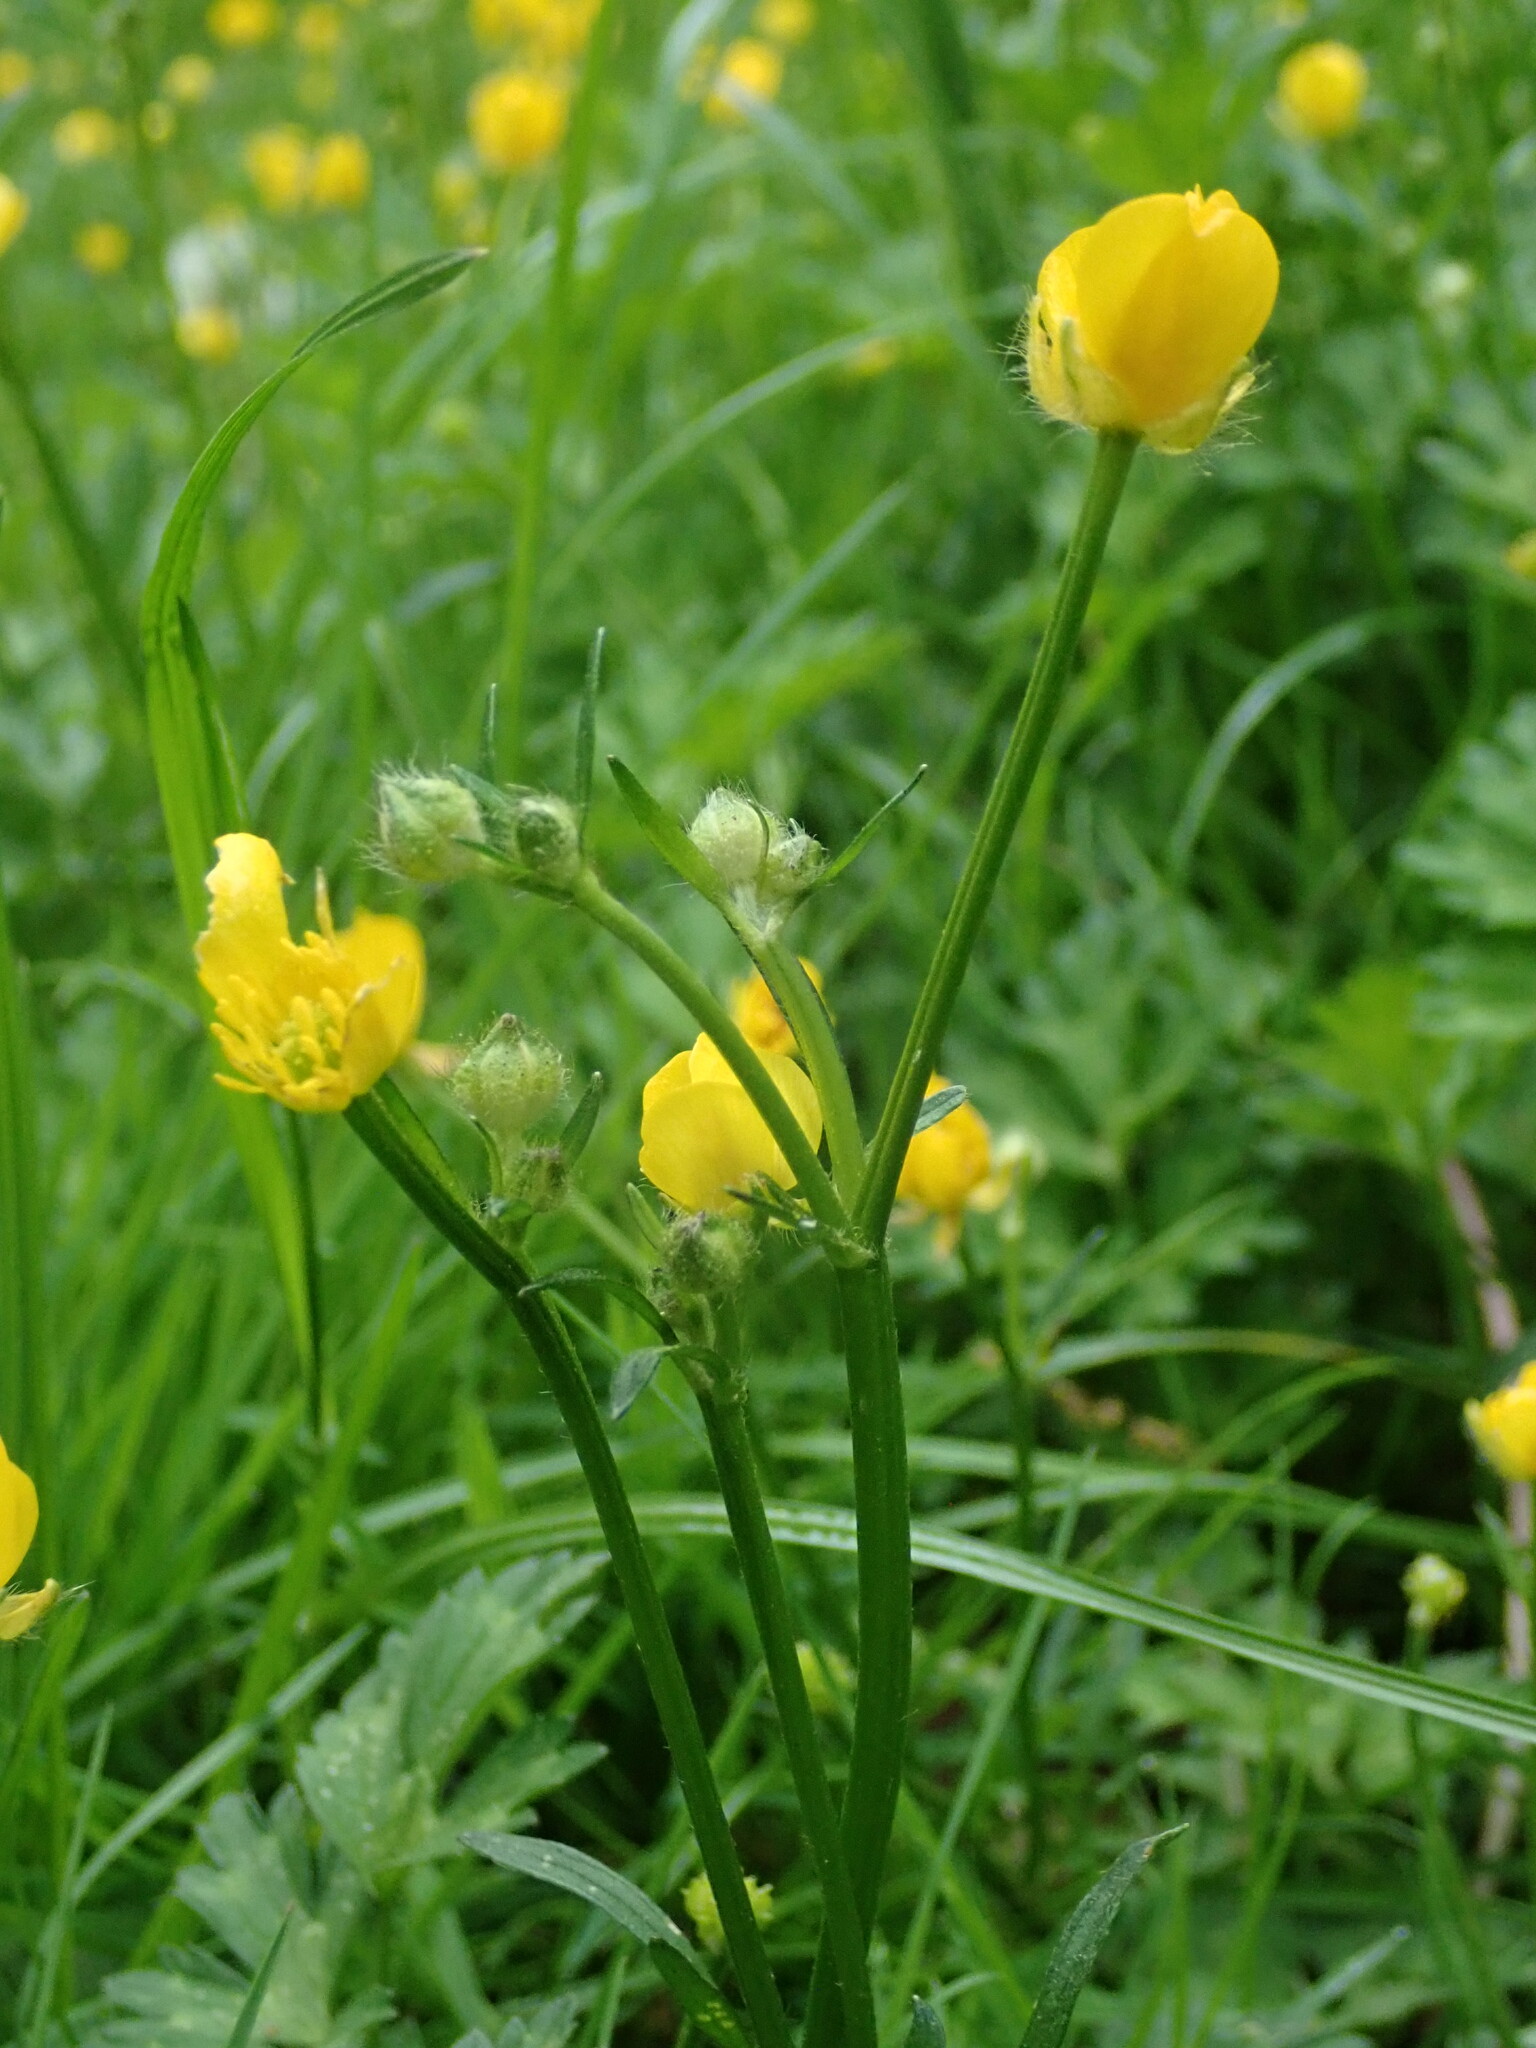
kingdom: Plantae
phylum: Tracheophyta
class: Magnoliopsida
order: Ranunculales
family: Ranunculaceae
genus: Ranunculus
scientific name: Ranunculus repens
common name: Creeping buttercup
